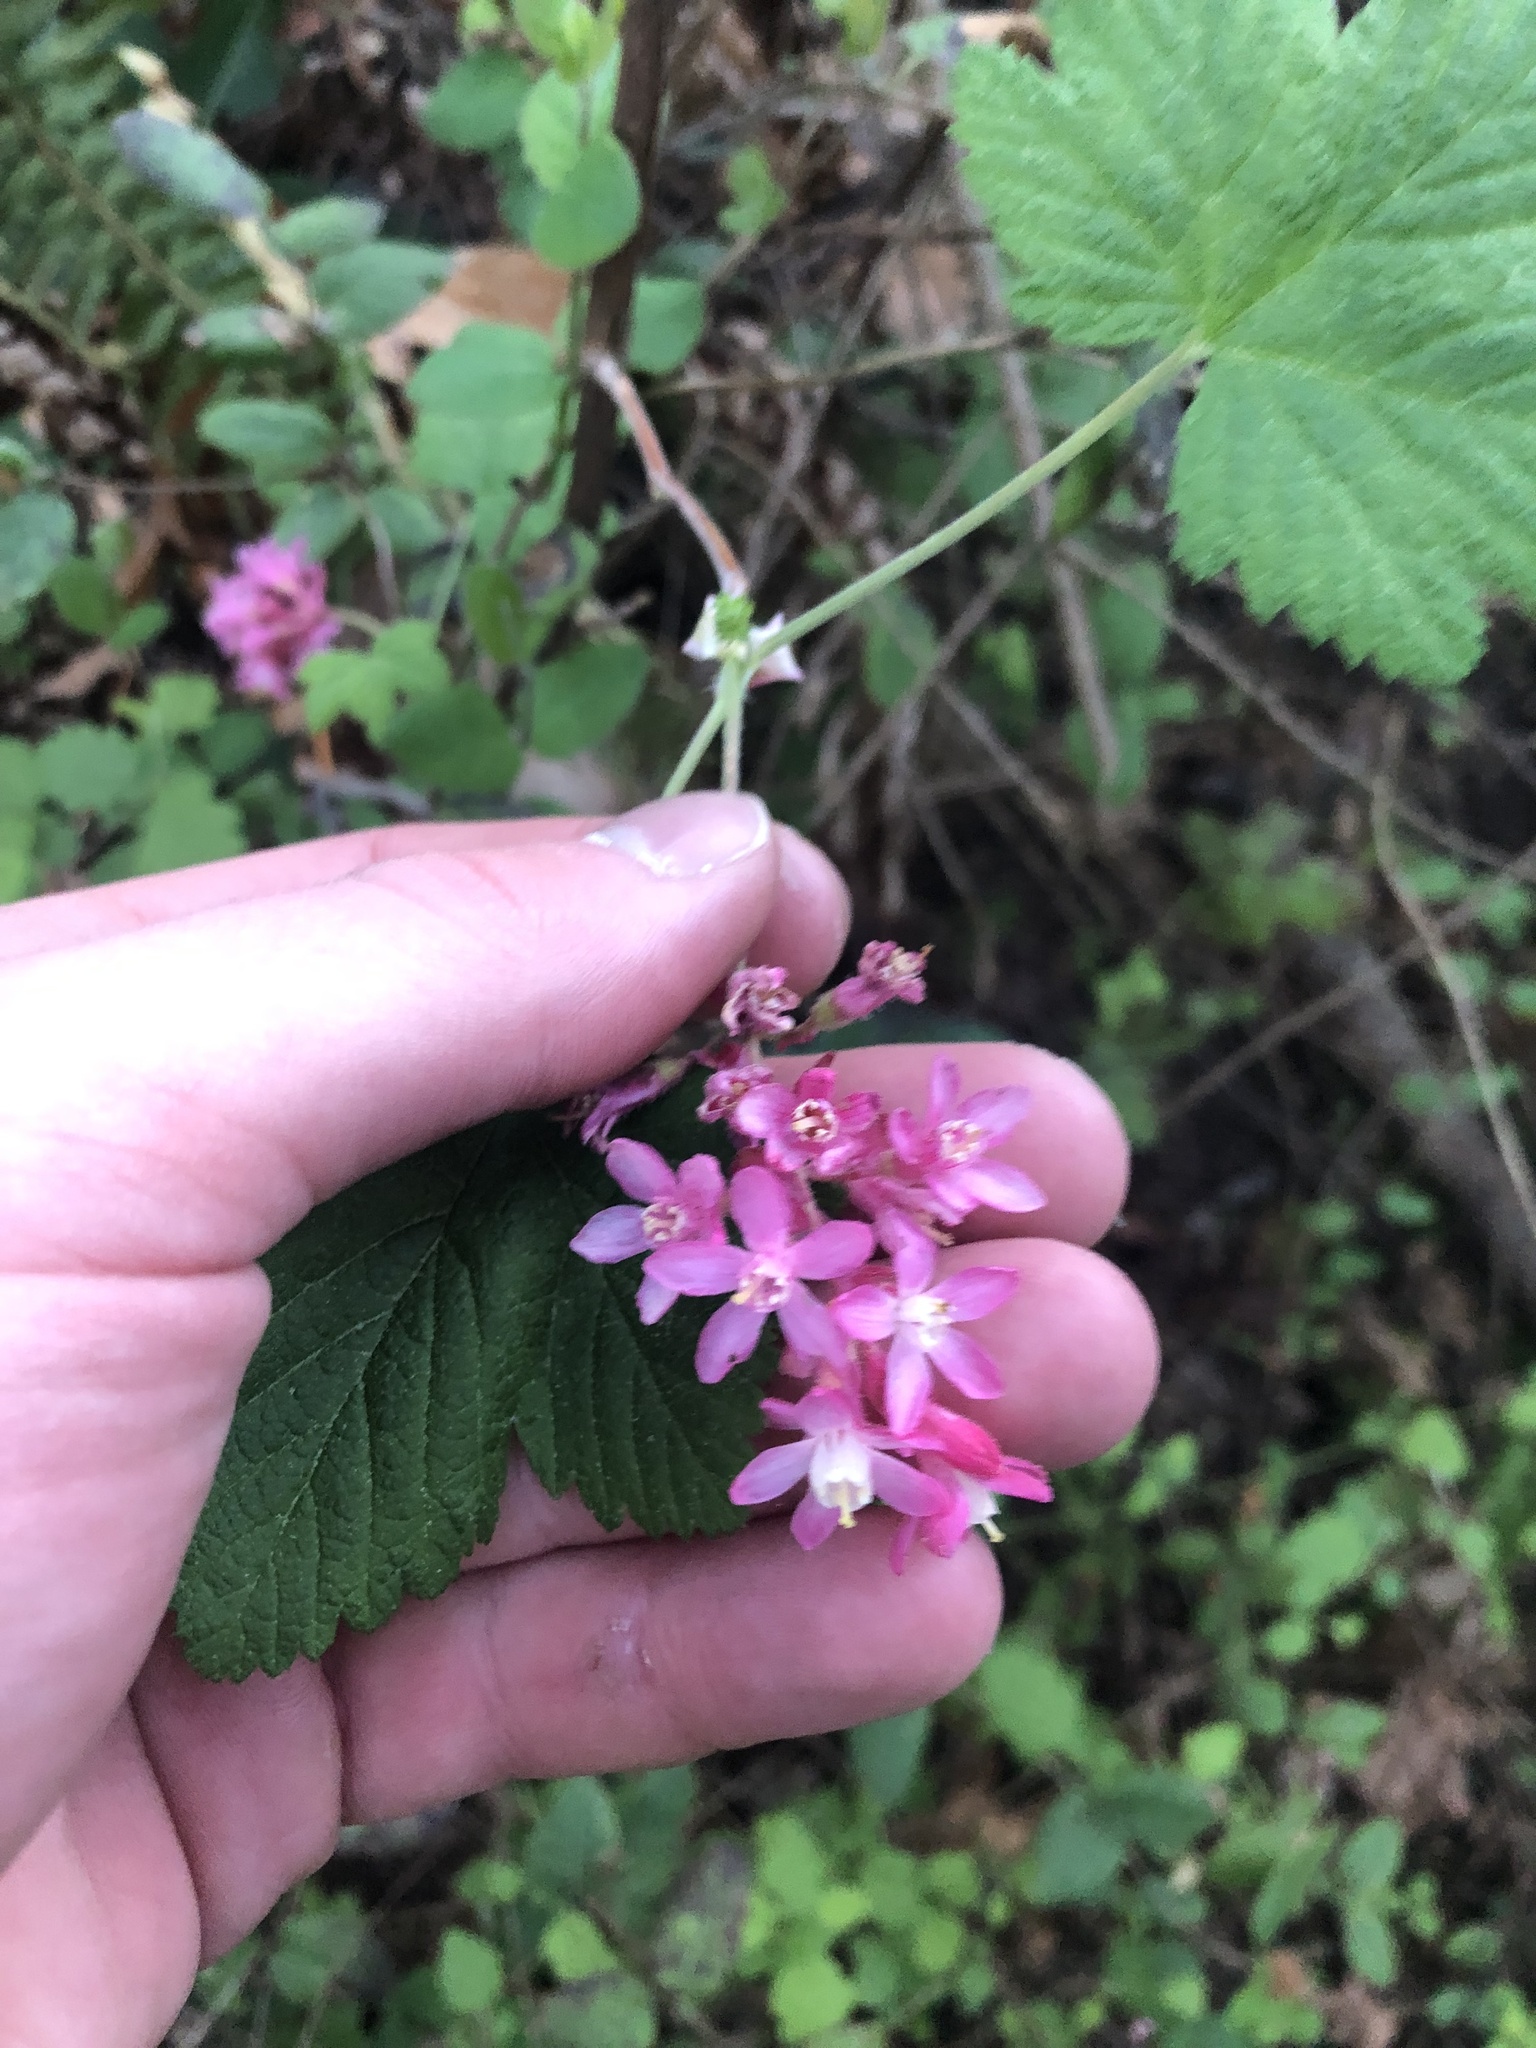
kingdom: Plantae
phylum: Tracheophyta
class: Magnoliopsida
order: Saxifragales
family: Grossulariaceae
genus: Ribes
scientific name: Ribes sanguineum
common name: Flowering currant
